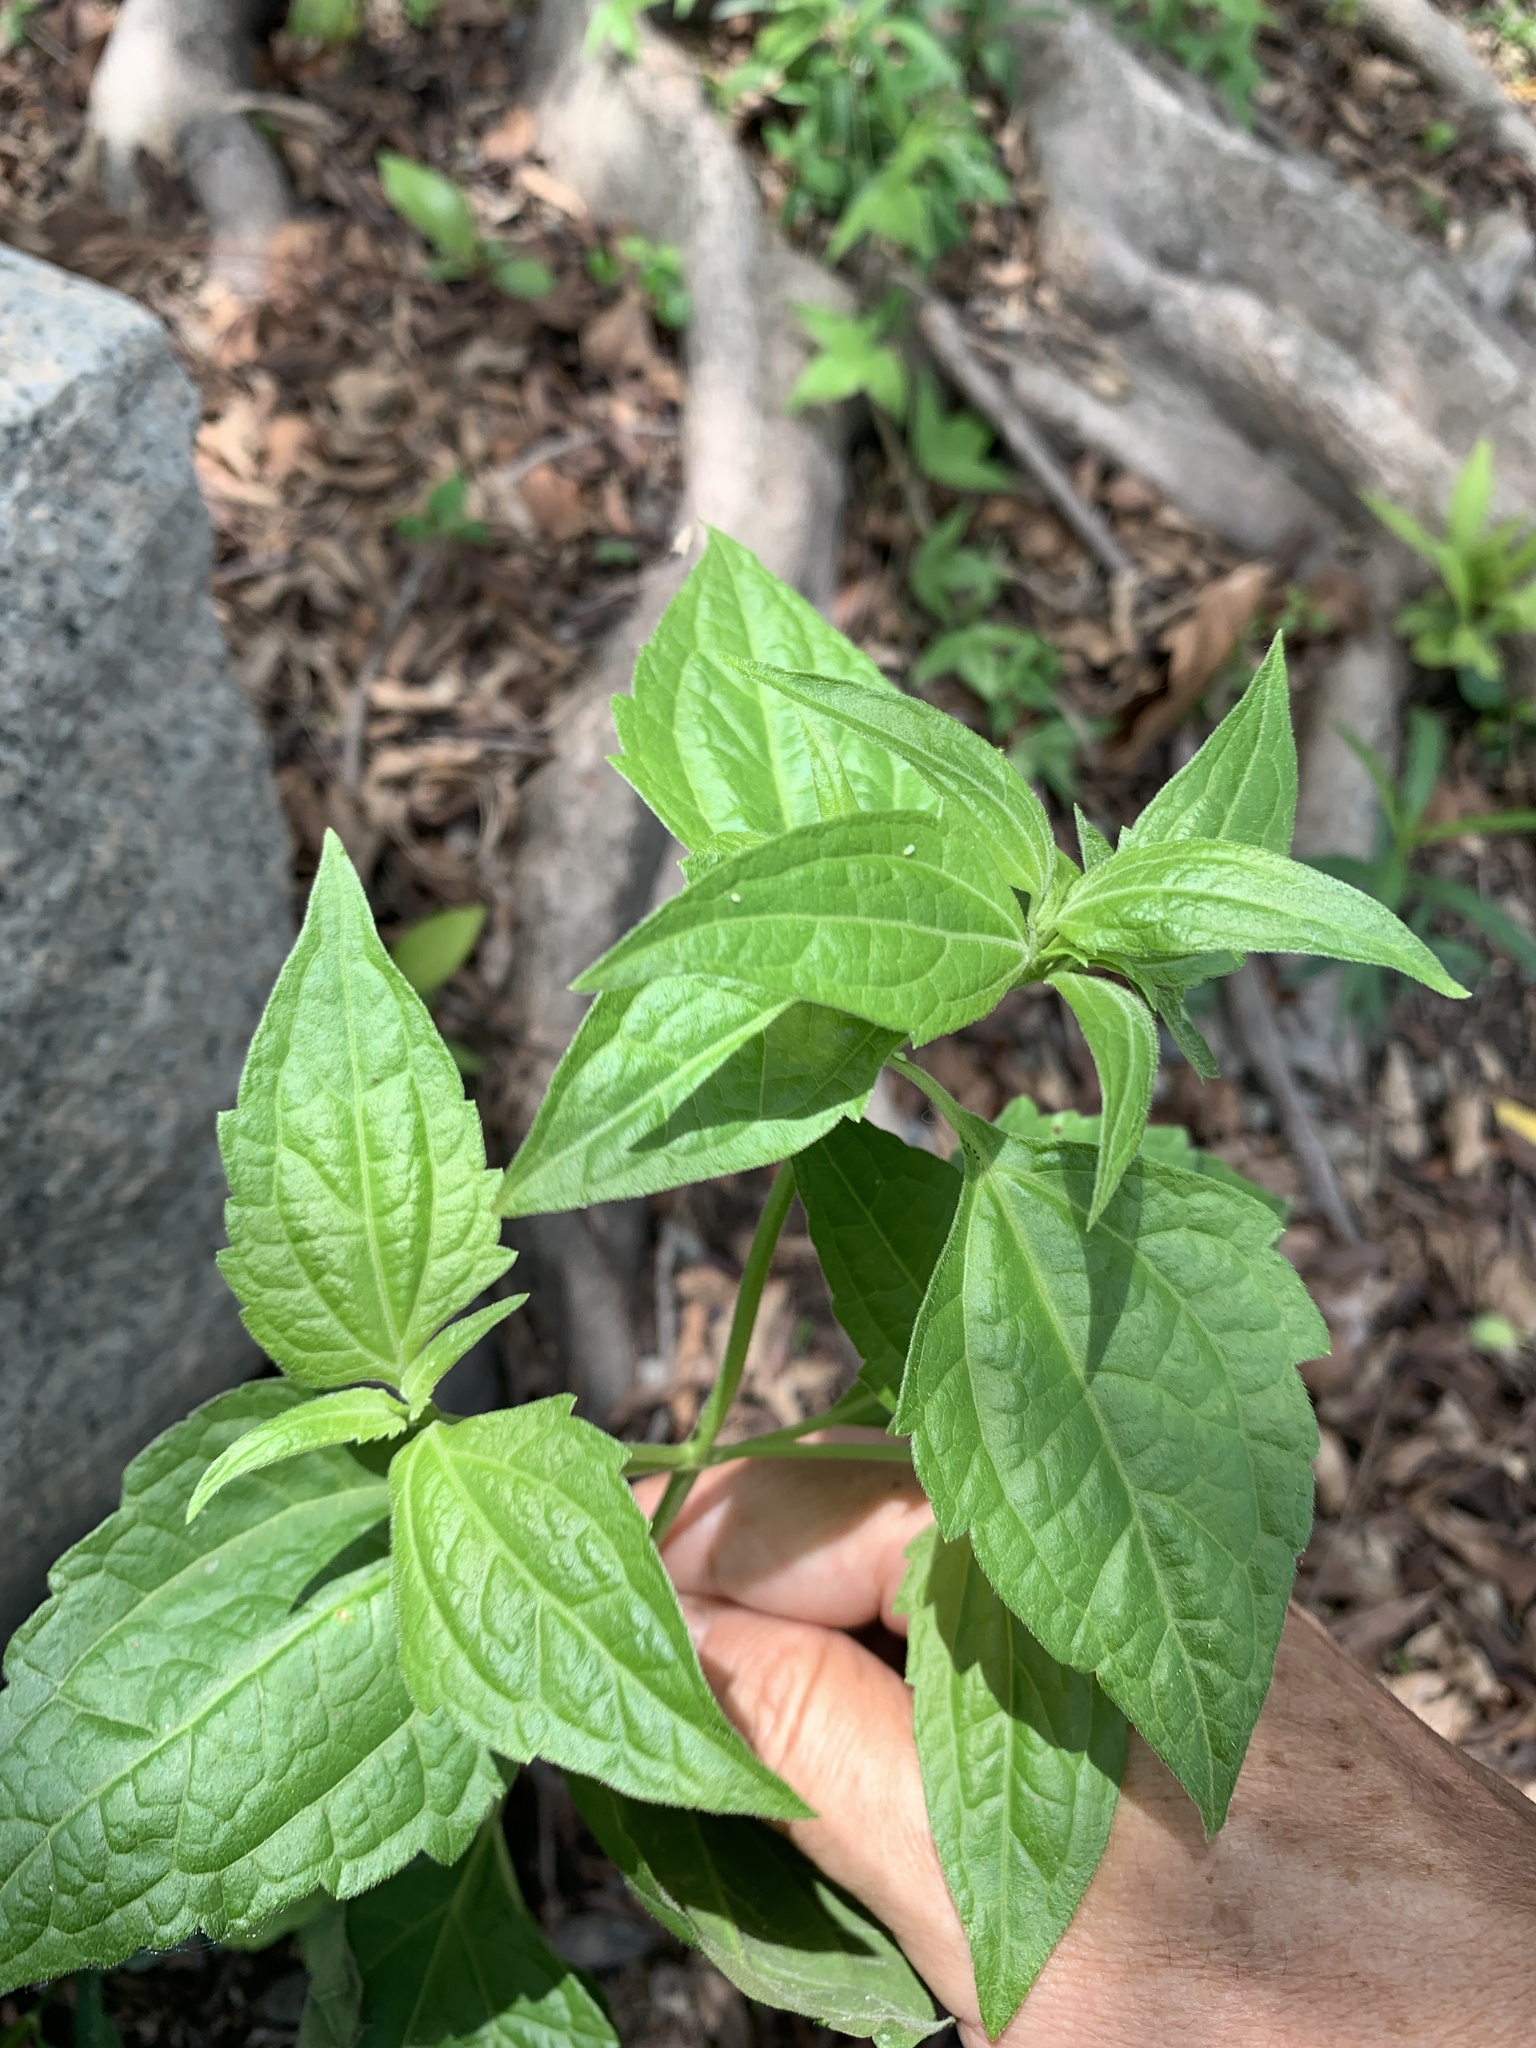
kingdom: Plantae
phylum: Tracheophyta
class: Magnoliopsida
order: Asterales
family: Asteraceae
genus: Chromolaena
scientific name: Chromolaena odorata
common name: Siamweed
